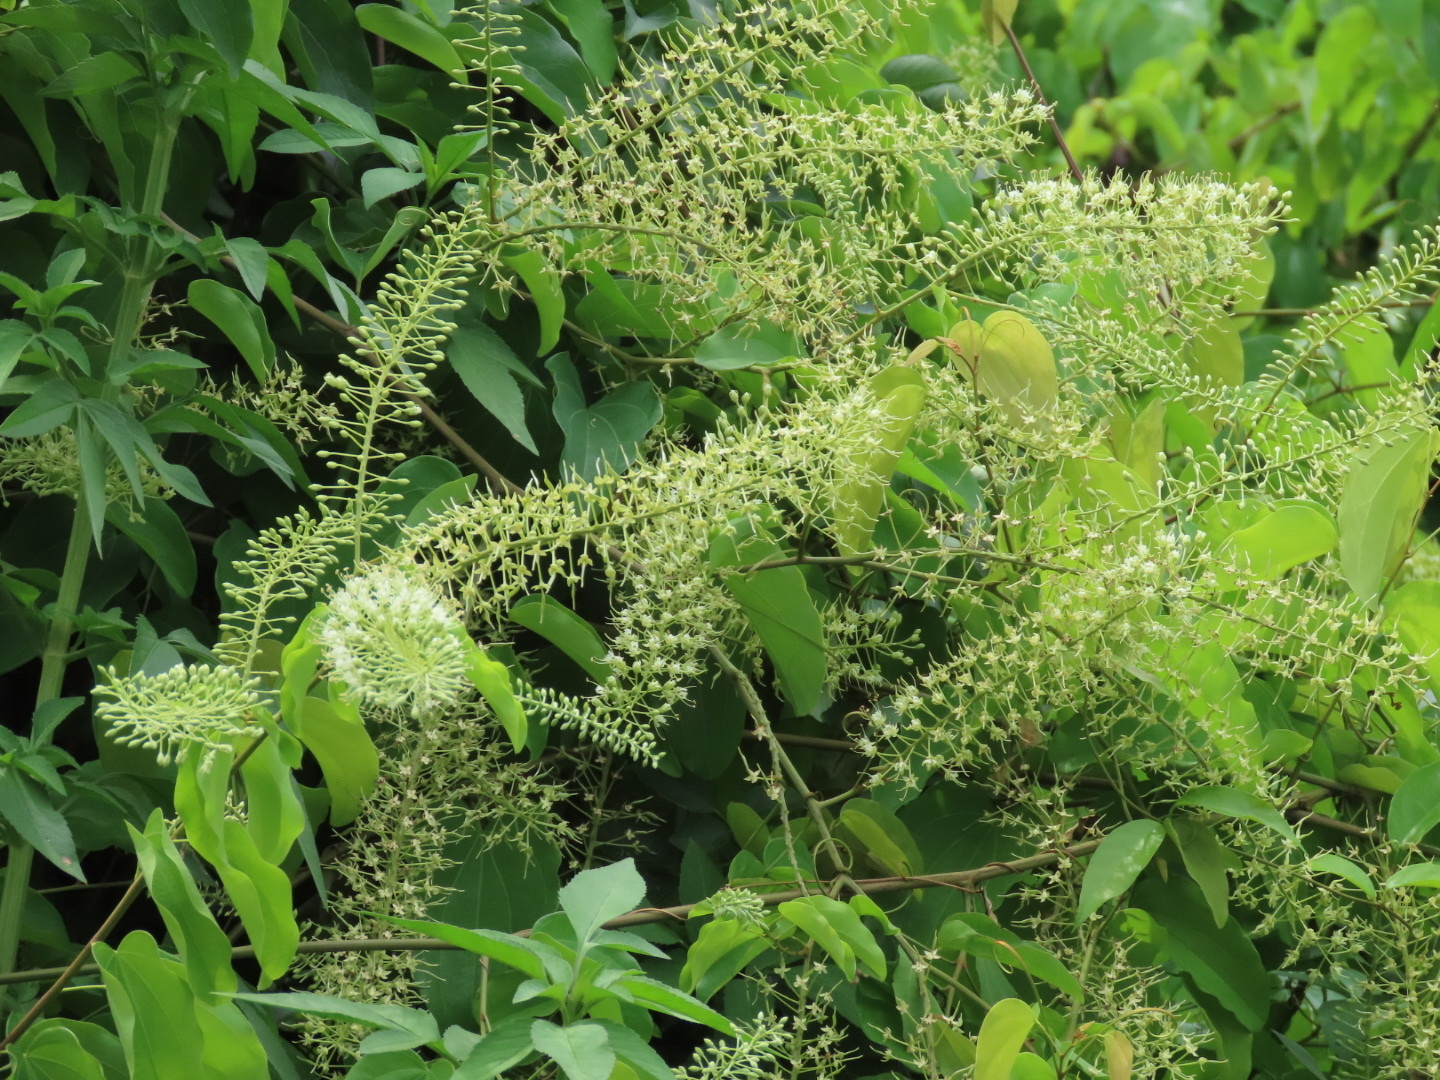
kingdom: Plantae
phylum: Tracheophyta
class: Magnoliopsida
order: Fabales
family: Fabaceae
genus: Phanera
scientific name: Phanera championii
